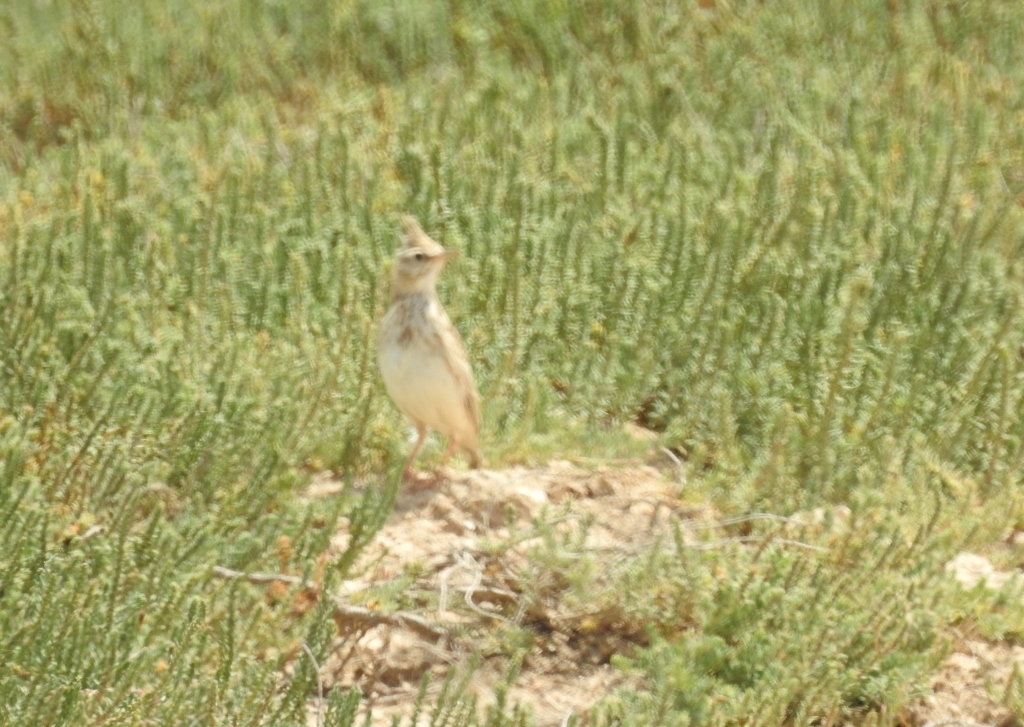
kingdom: Animalia
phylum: Chordata
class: Aves
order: Passeriformes
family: Alaudidae
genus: Galerida
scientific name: Galerida cristata
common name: Crested lark
